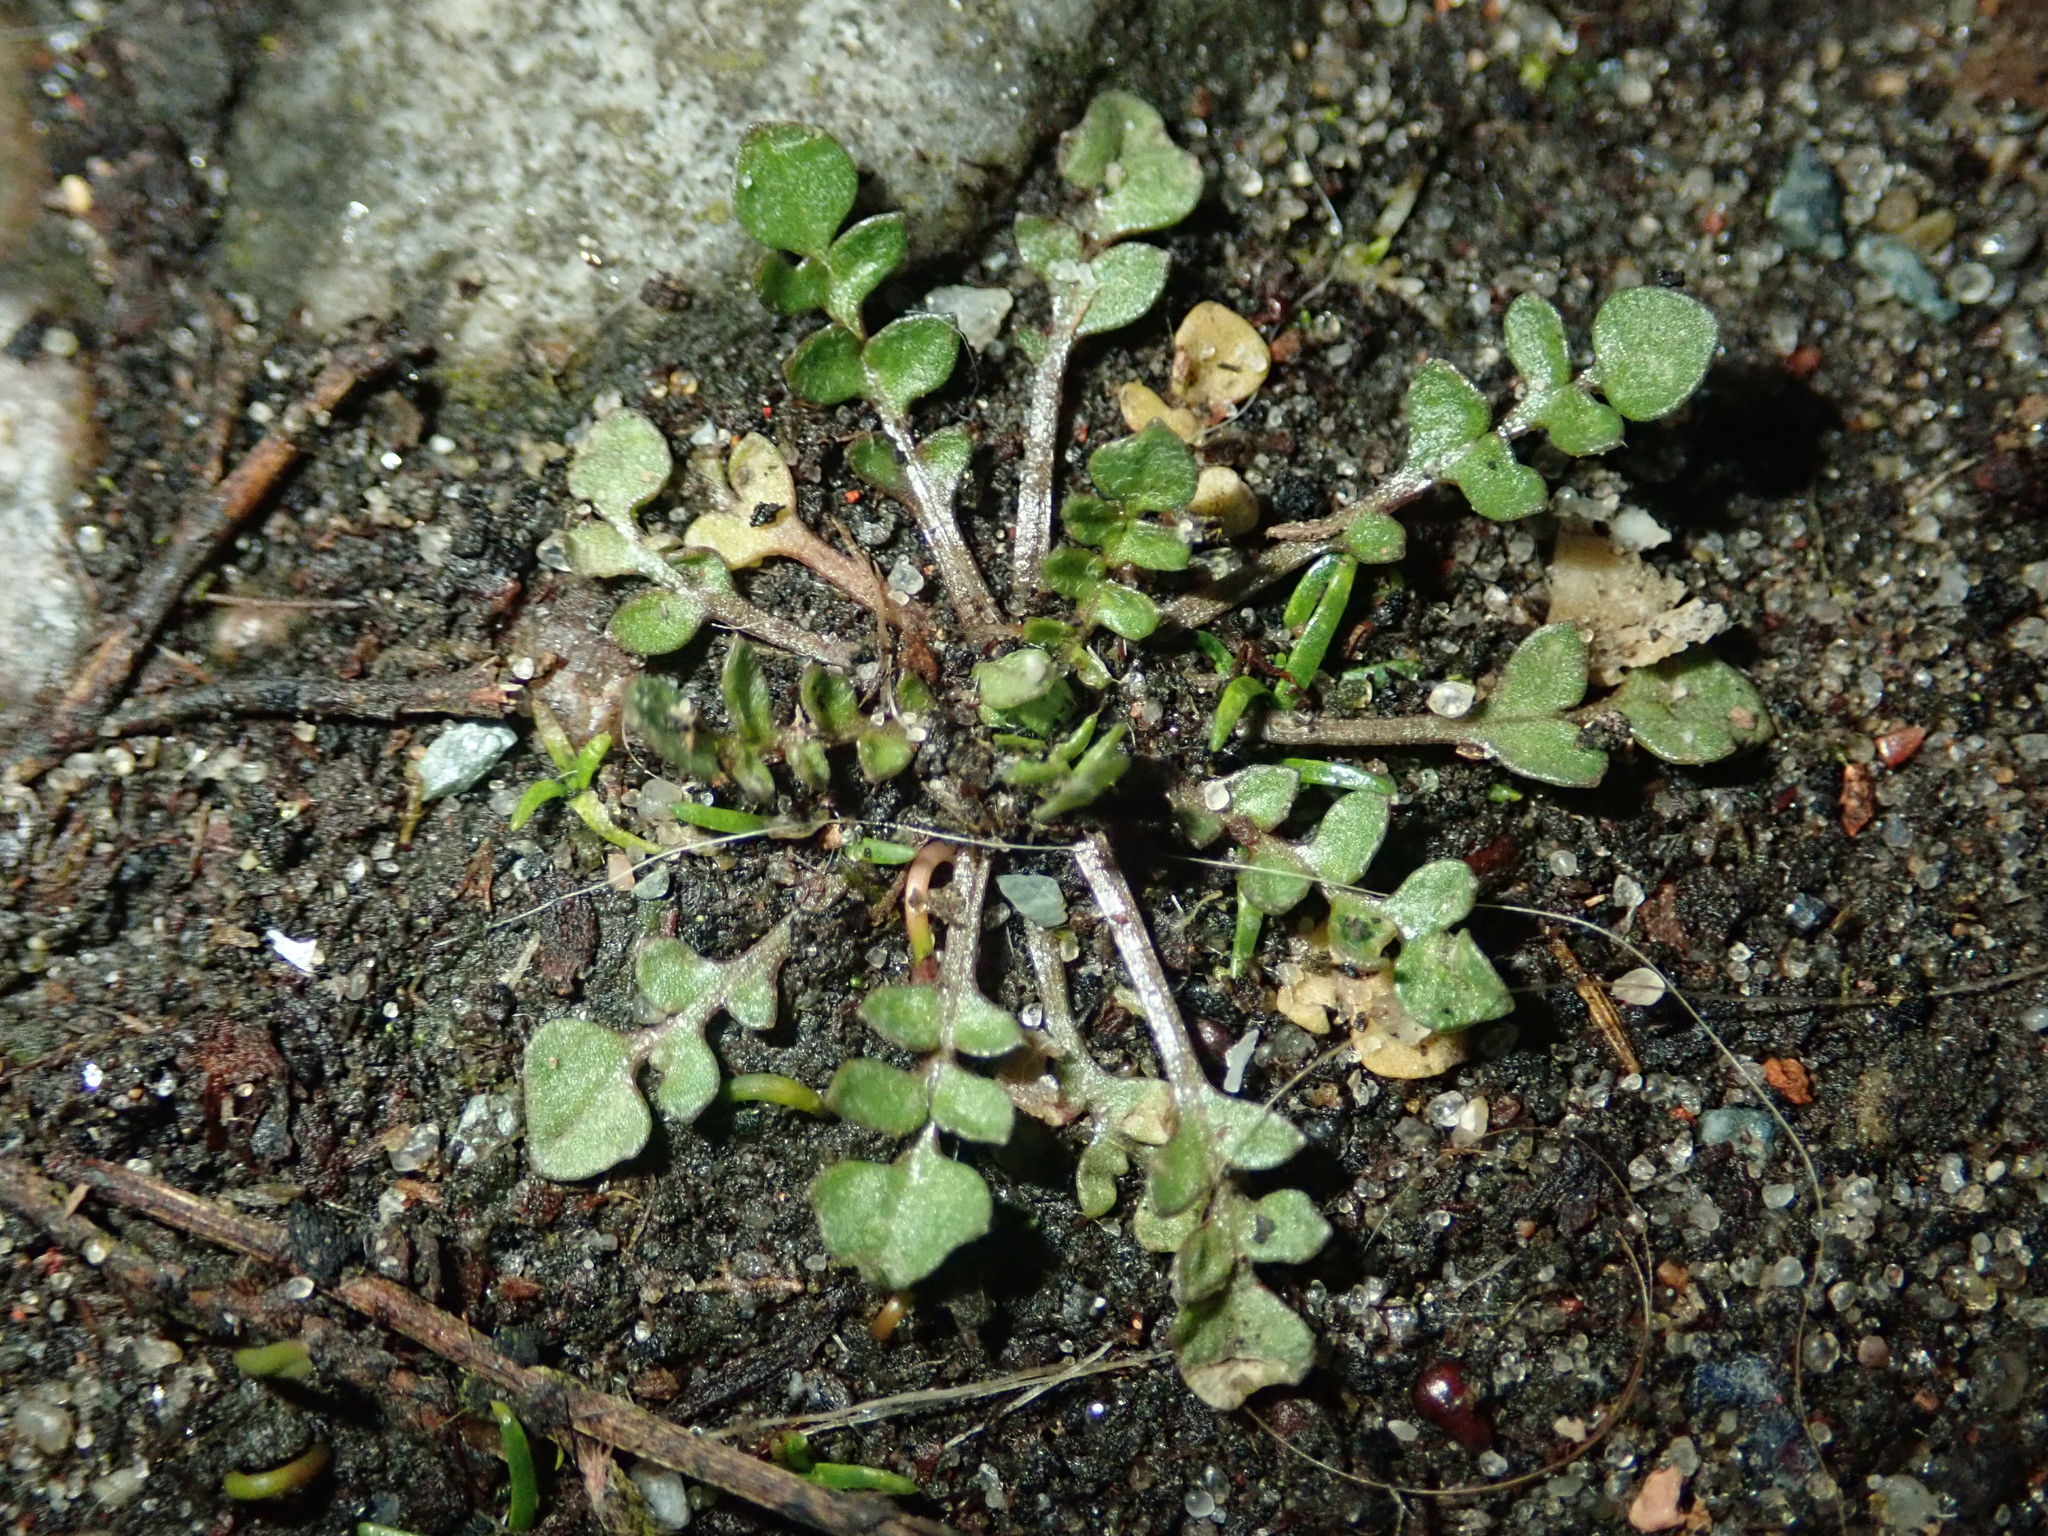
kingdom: Plantae
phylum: Tracheophyta
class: Magnoliopsida
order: Brassicales
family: Brassicaceae
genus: Capsella
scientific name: Capsella bursa-pastoris
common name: Shepherd's purse
